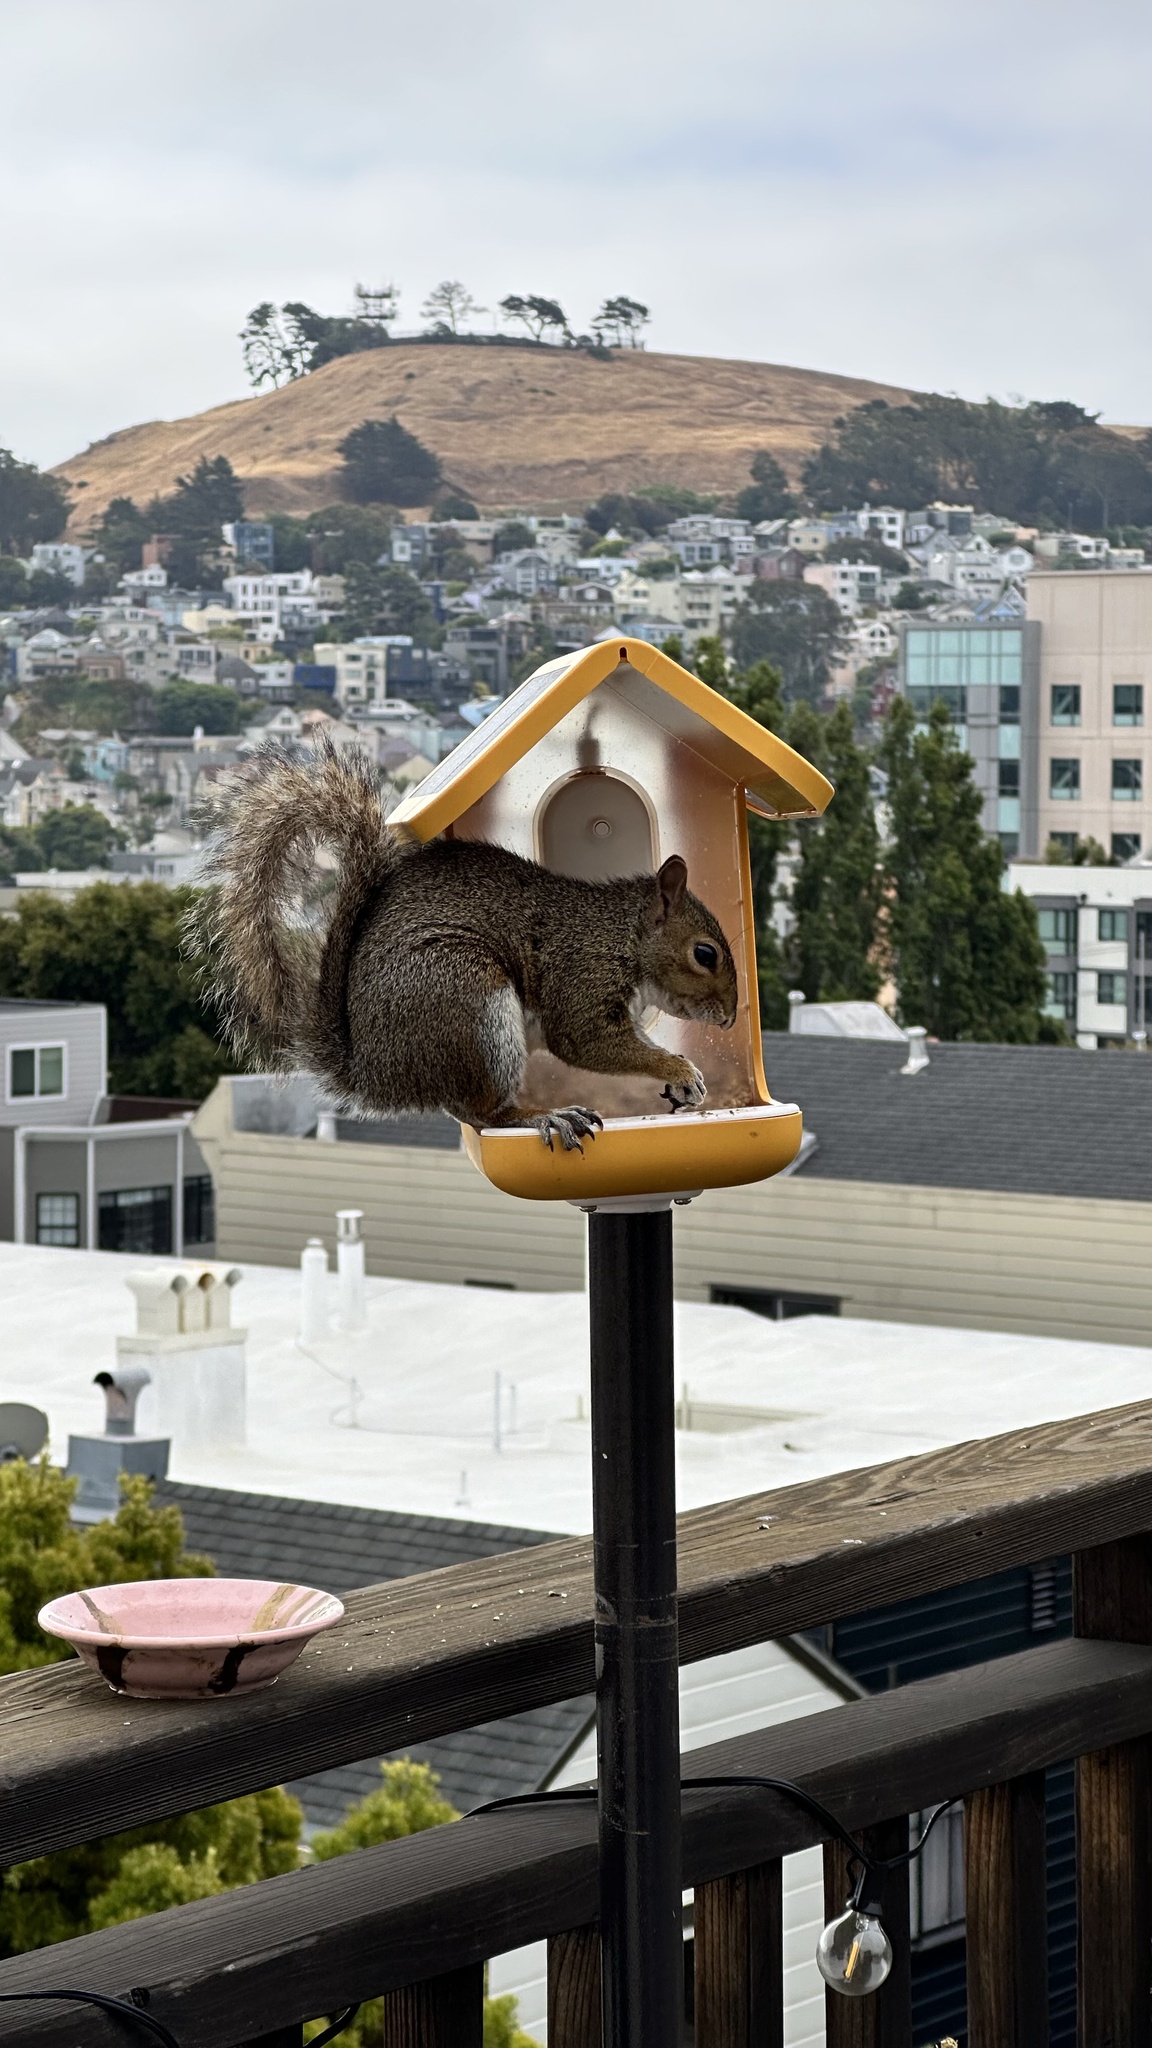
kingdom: Animalia
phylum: Chordata
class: Mammalia
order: Rodentia
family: Sciuridae
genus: Sciurus
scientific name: Sciurus carolinensis
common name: Eastern gray squirrel
